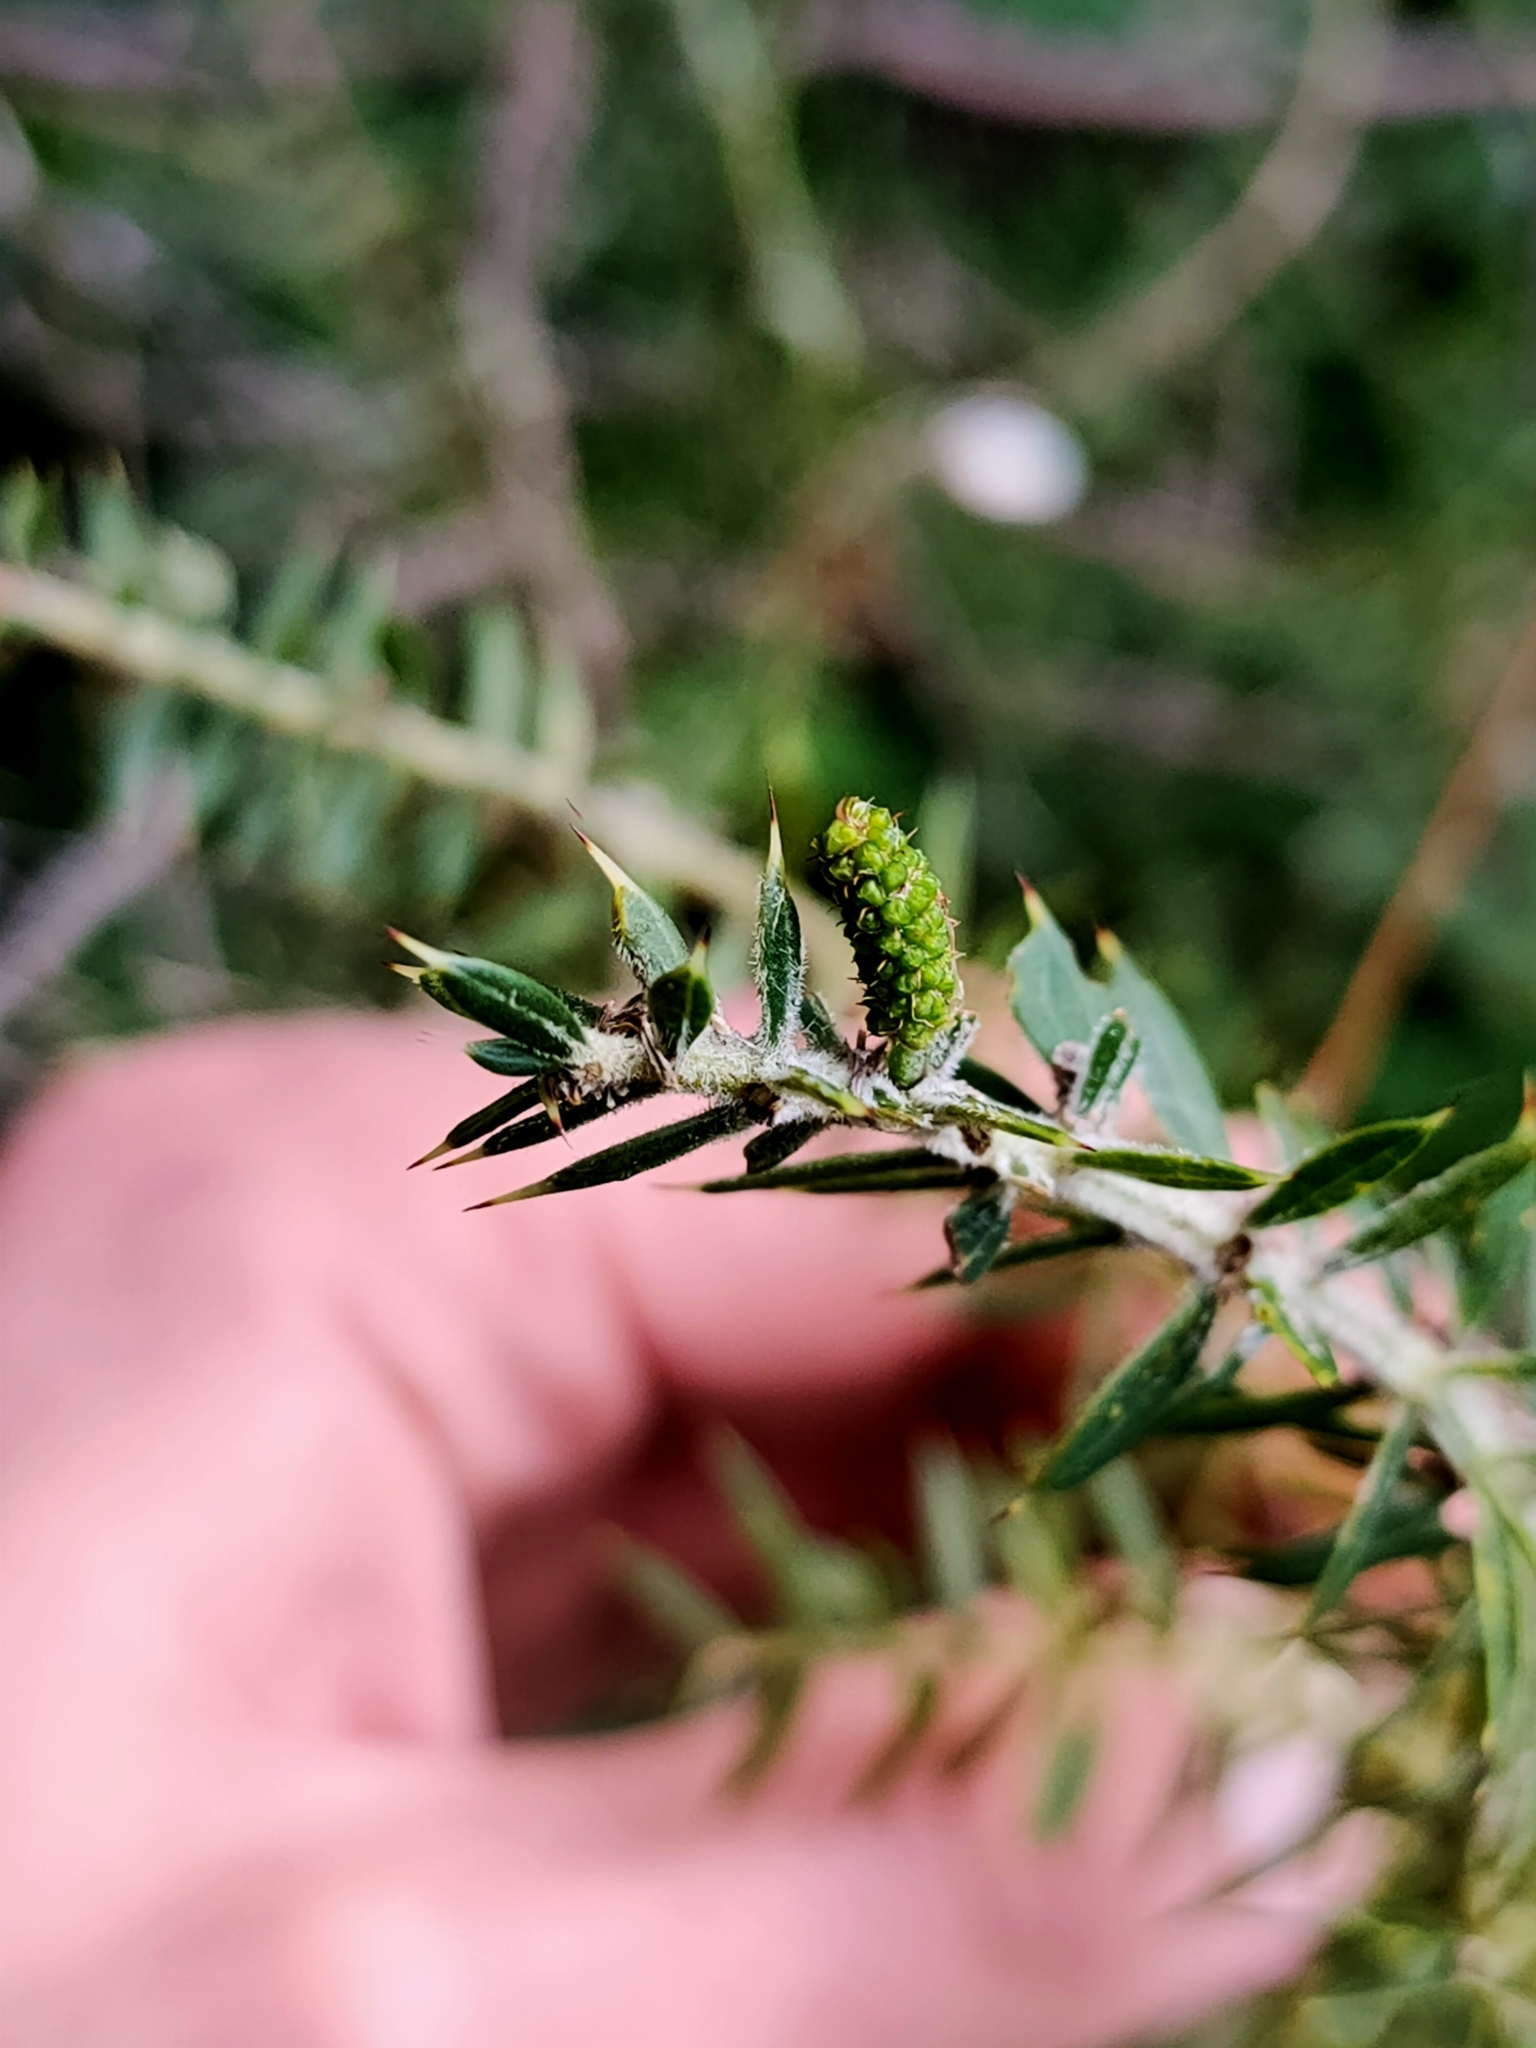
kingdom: Plantae
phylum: Tracheophyta
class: Magnoliopsida
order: Fabales
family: Fabaceae
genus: Acacia
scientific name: Acacia verticillata
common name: Prickly moses
